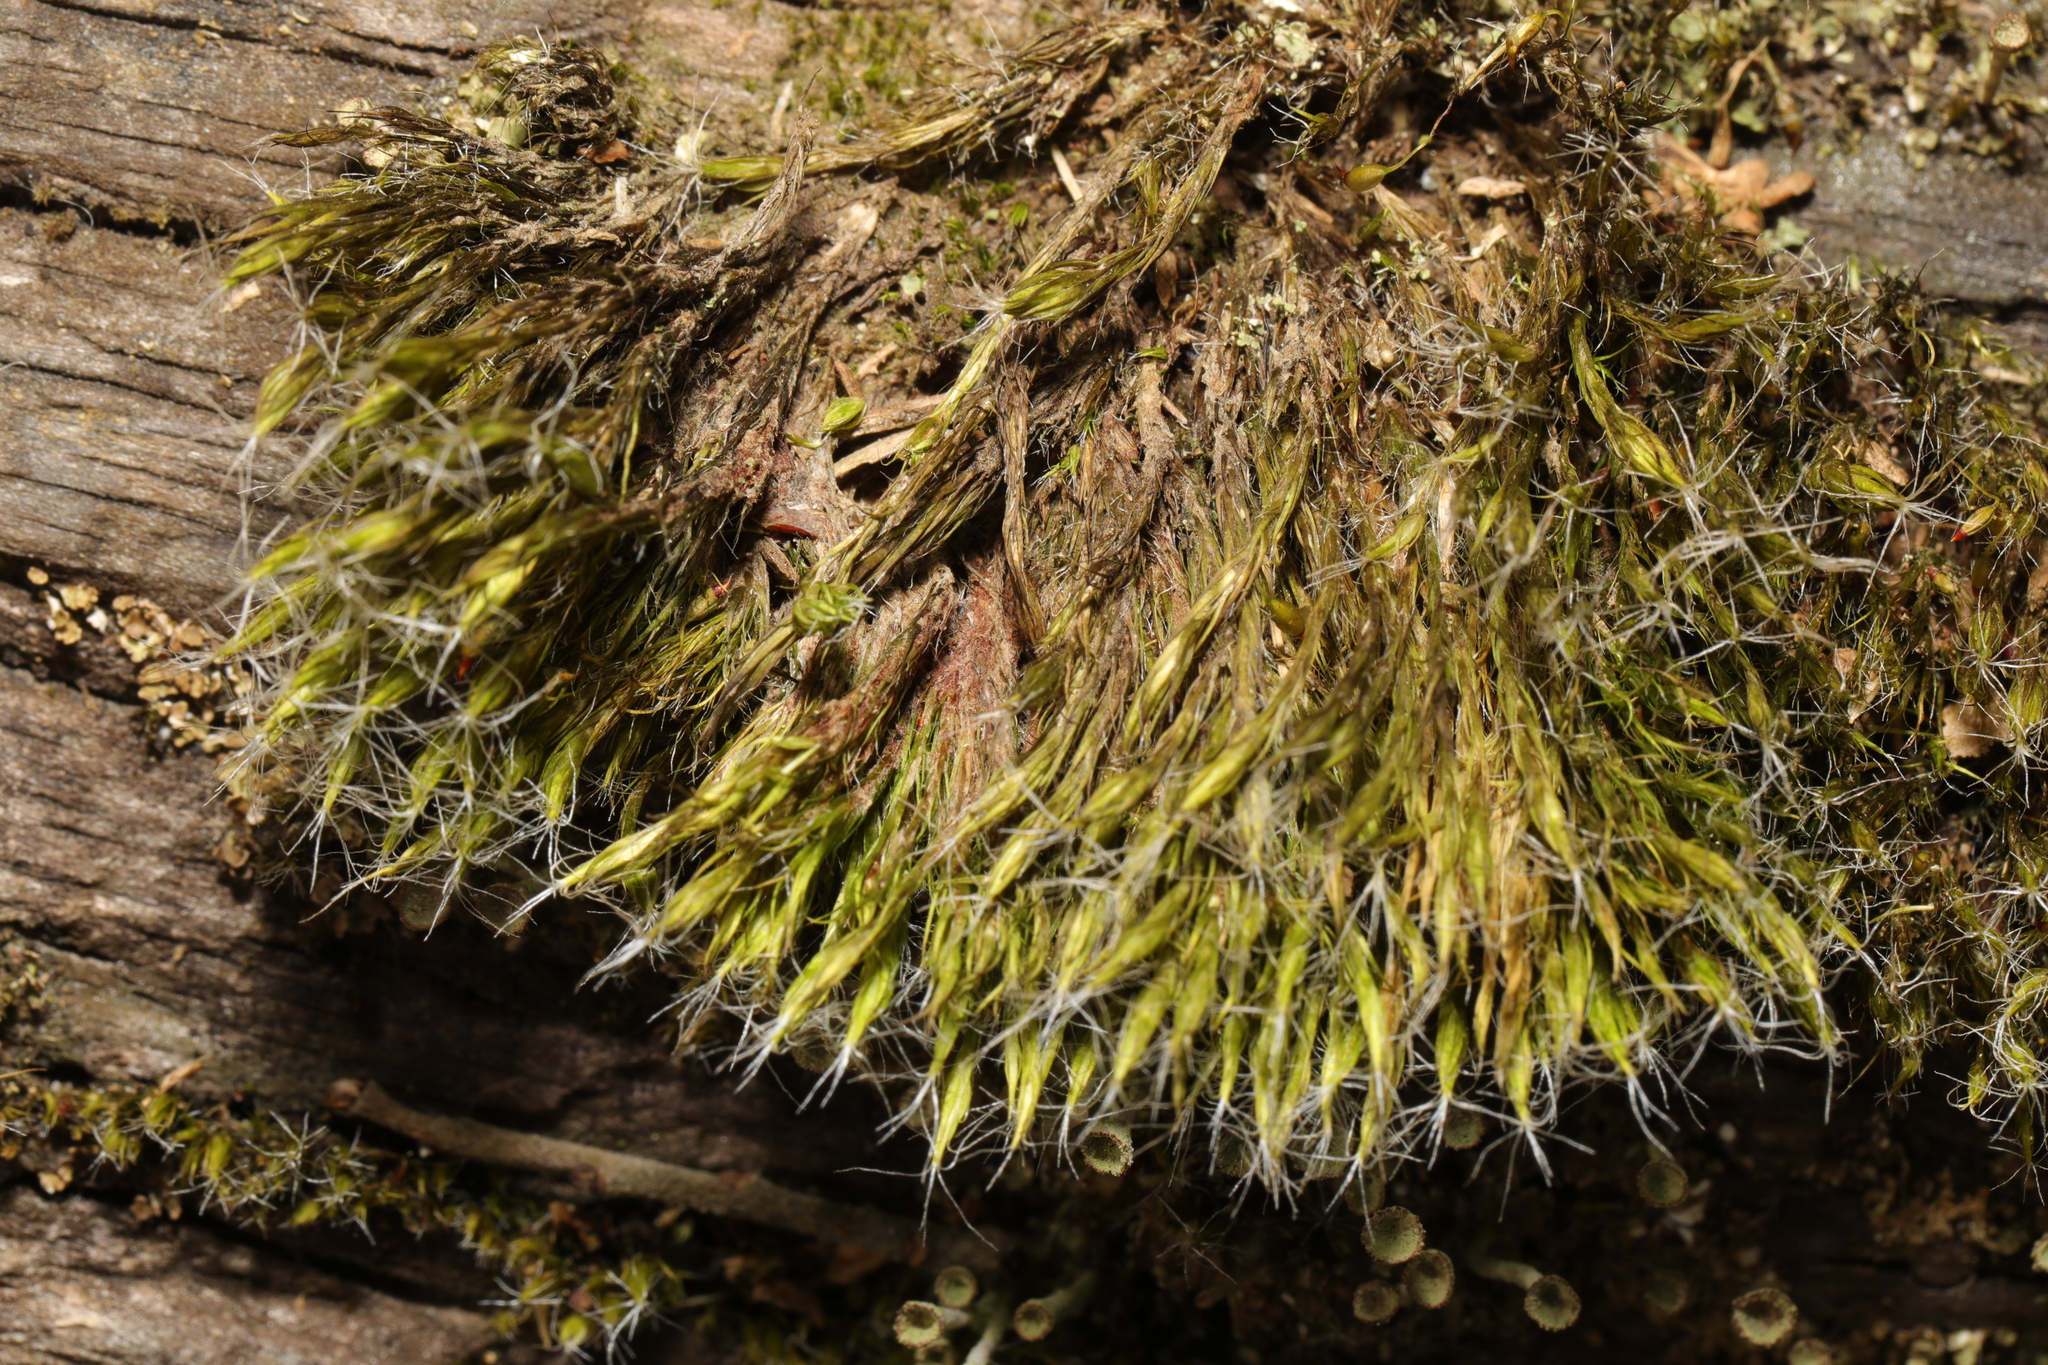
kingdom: Plantae
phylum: Bryophyta
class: Bryopsida
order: Dicranales
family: Leucobryaceae
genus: Campylopus
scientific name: Campylopus introflexus
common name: Heath star moss
